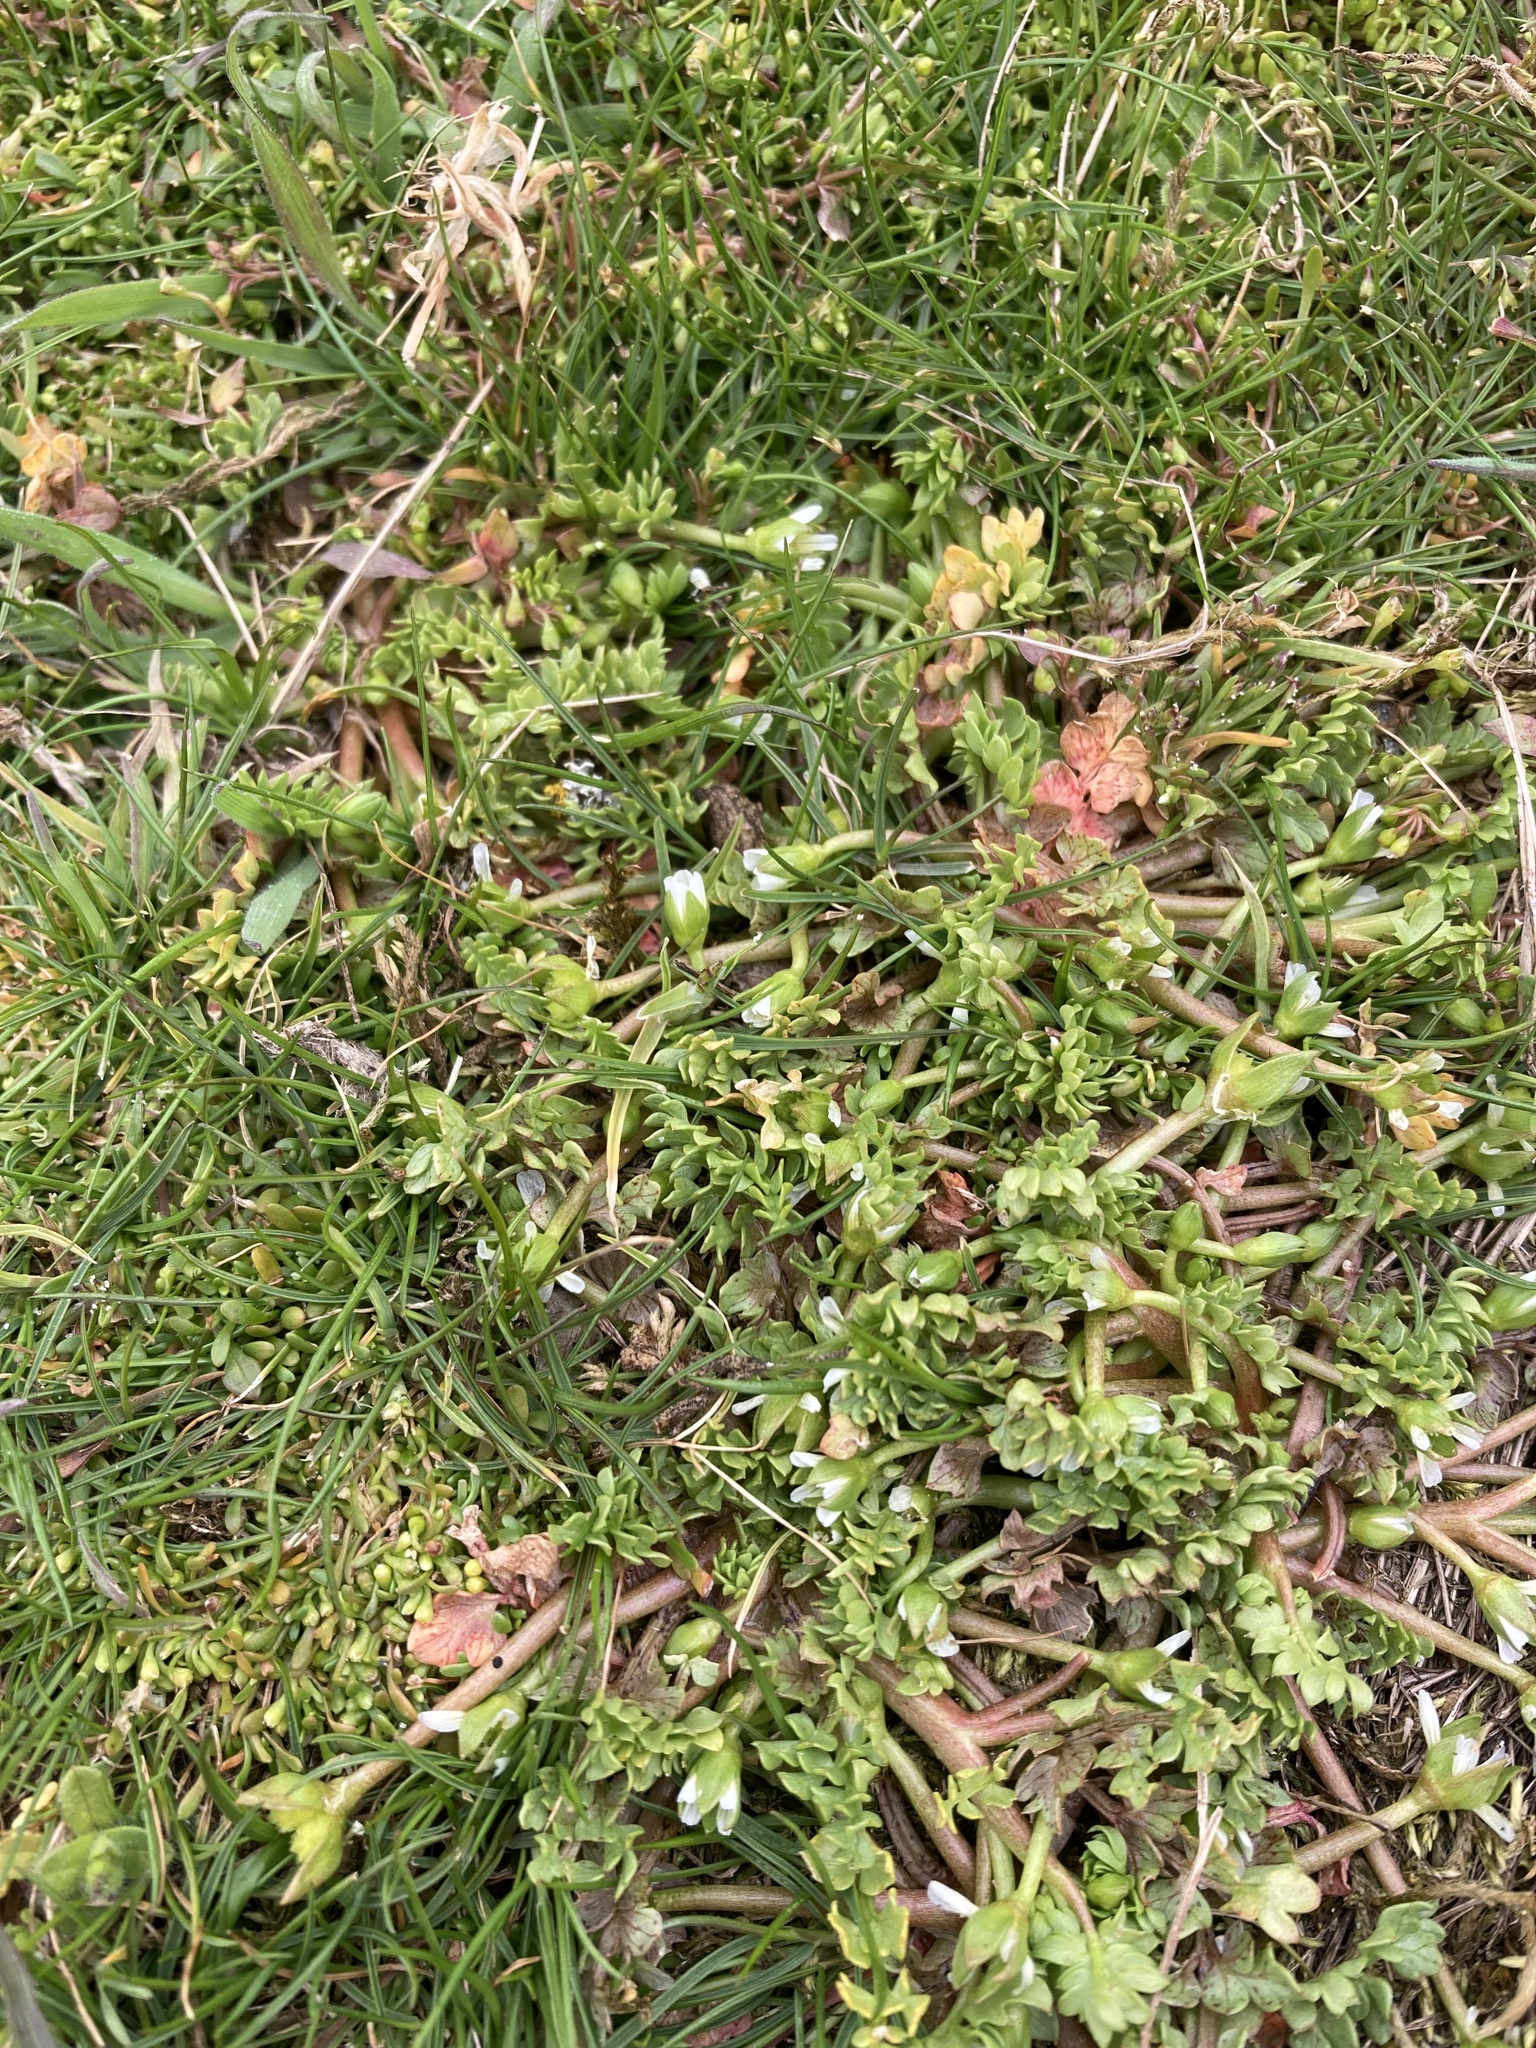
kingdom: Plantae
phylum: Tracheophyta
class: Magnoliopsida
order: Brassicales
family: Limnanthaceae
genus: Limnanthes
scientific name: Limnanthes macounii
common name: Macoun's meadowfoam
